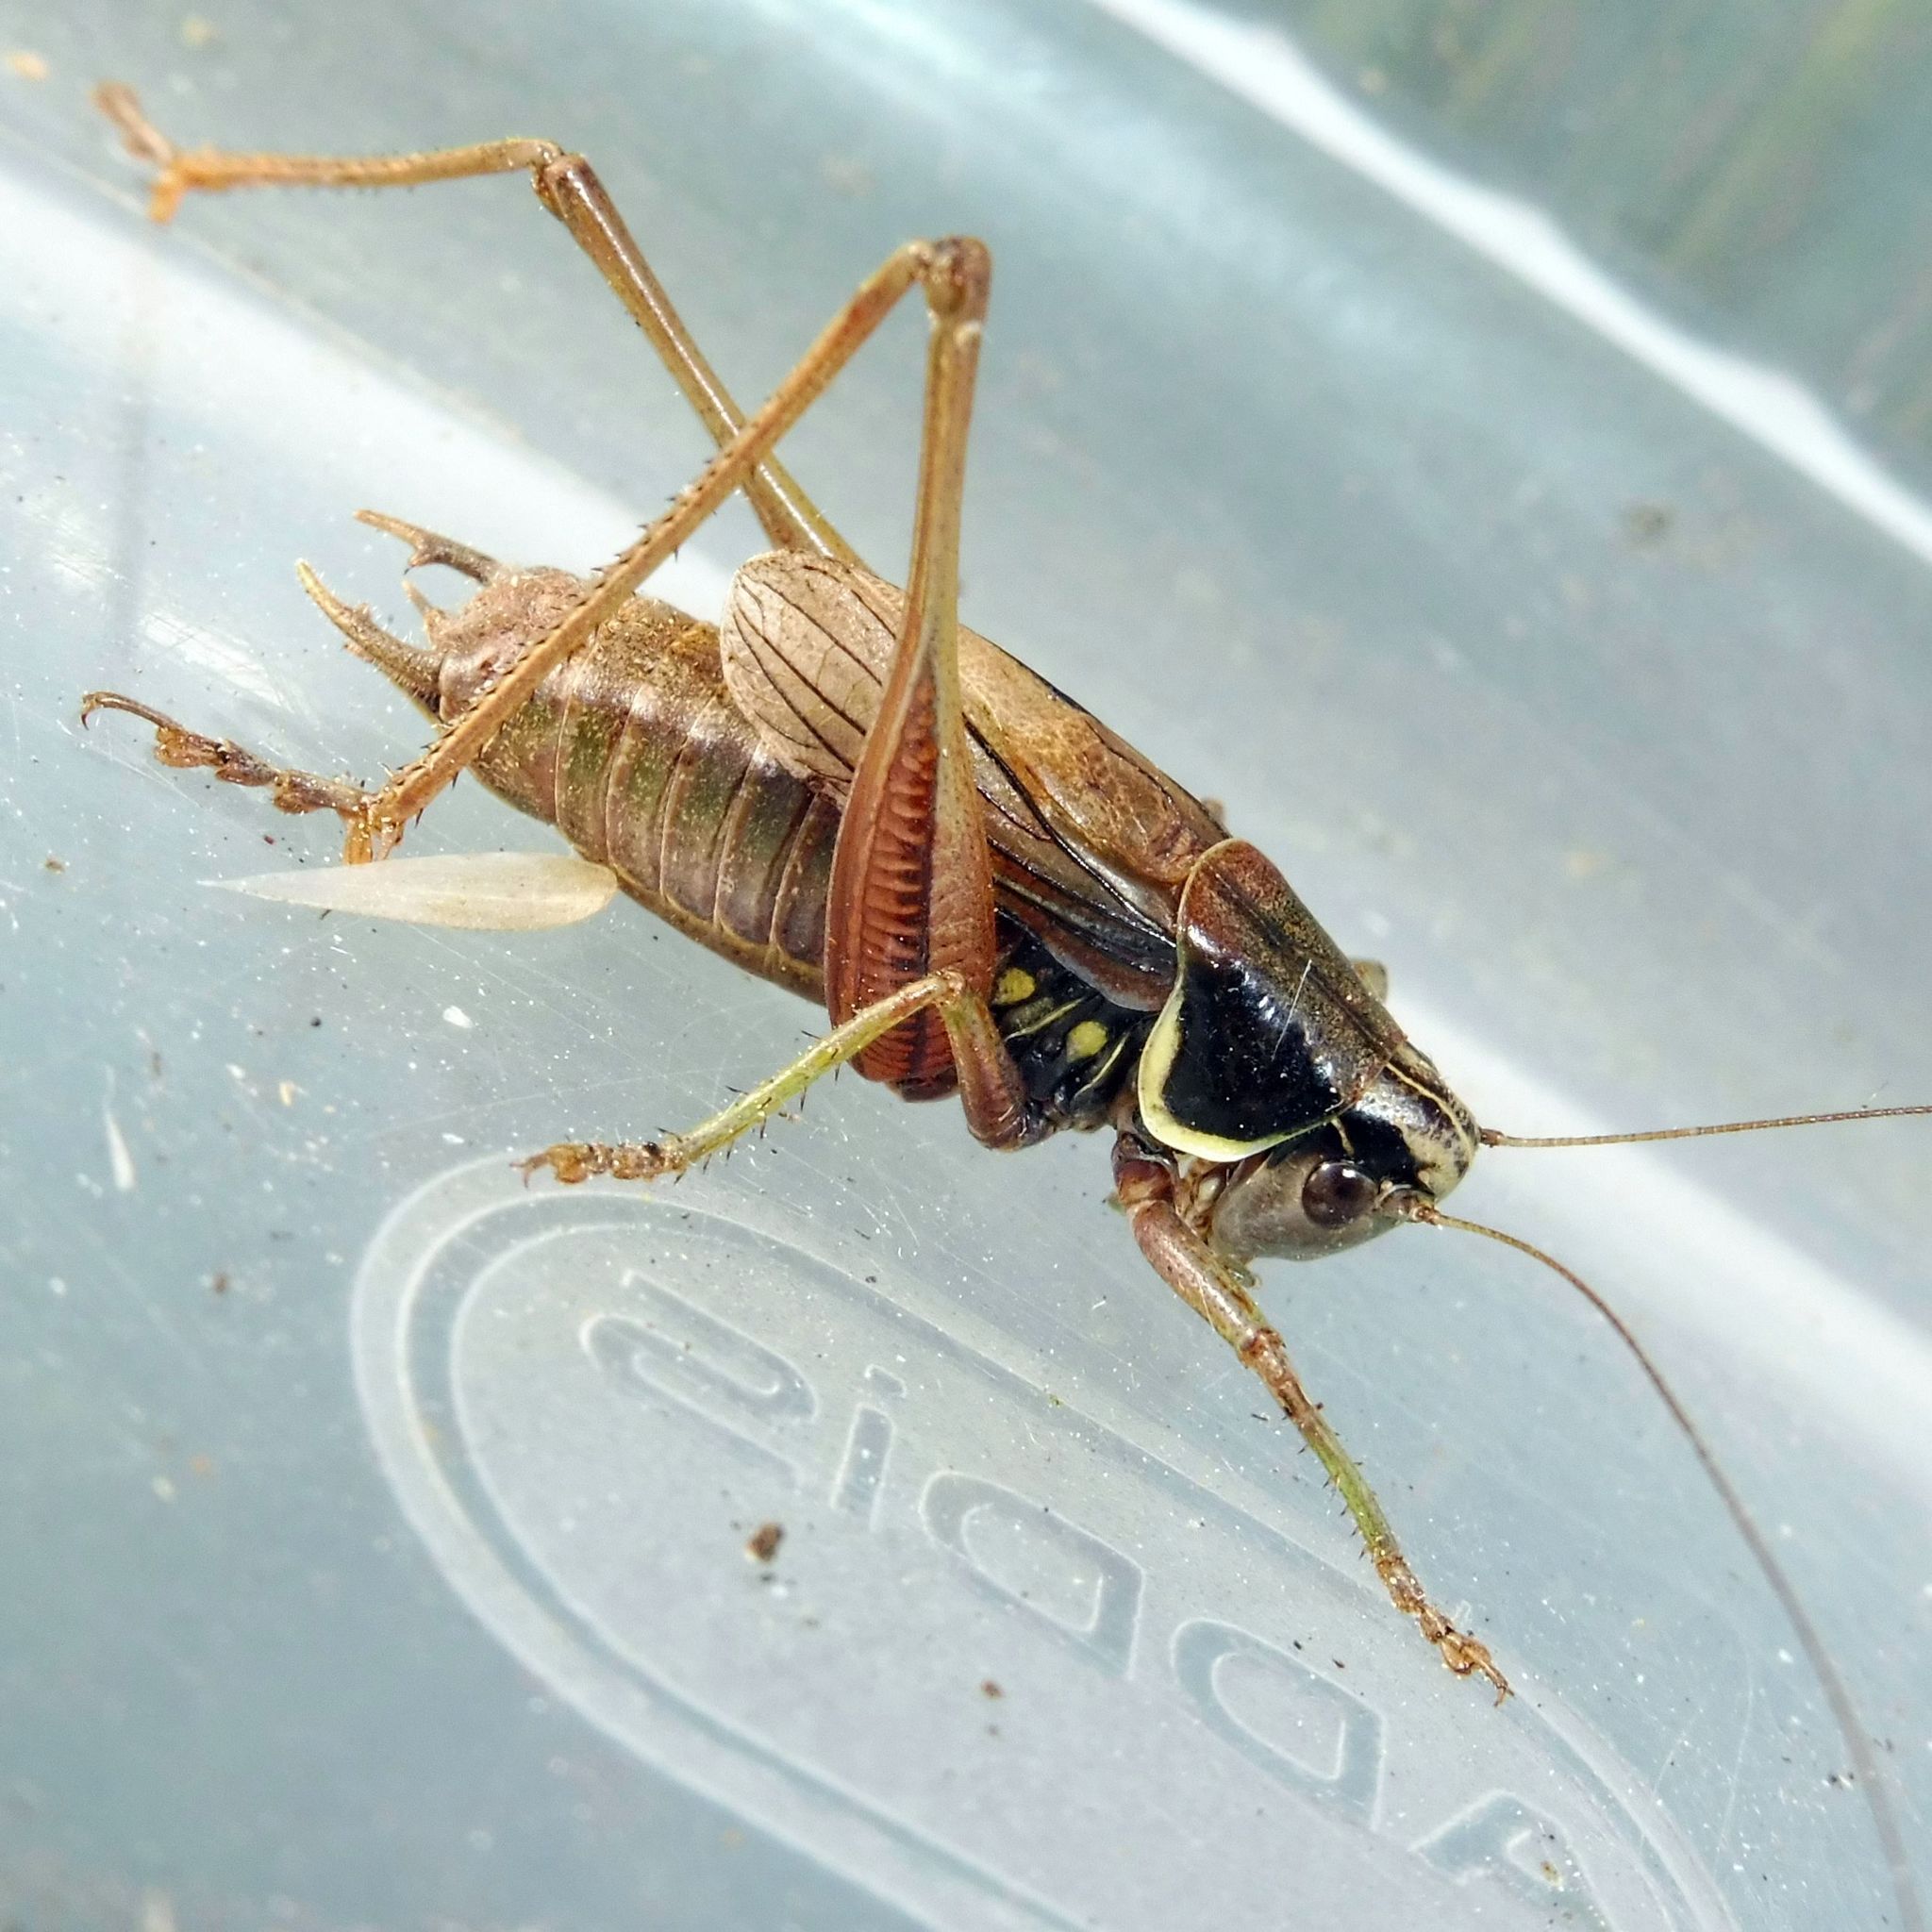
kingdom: Animalia
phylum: Arthropoda
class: Insecta
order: Orthoptera
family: Tettigoniidae
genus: Roeseliana
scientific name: Roeseliana roeselii
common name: Roesel's bush cricket
